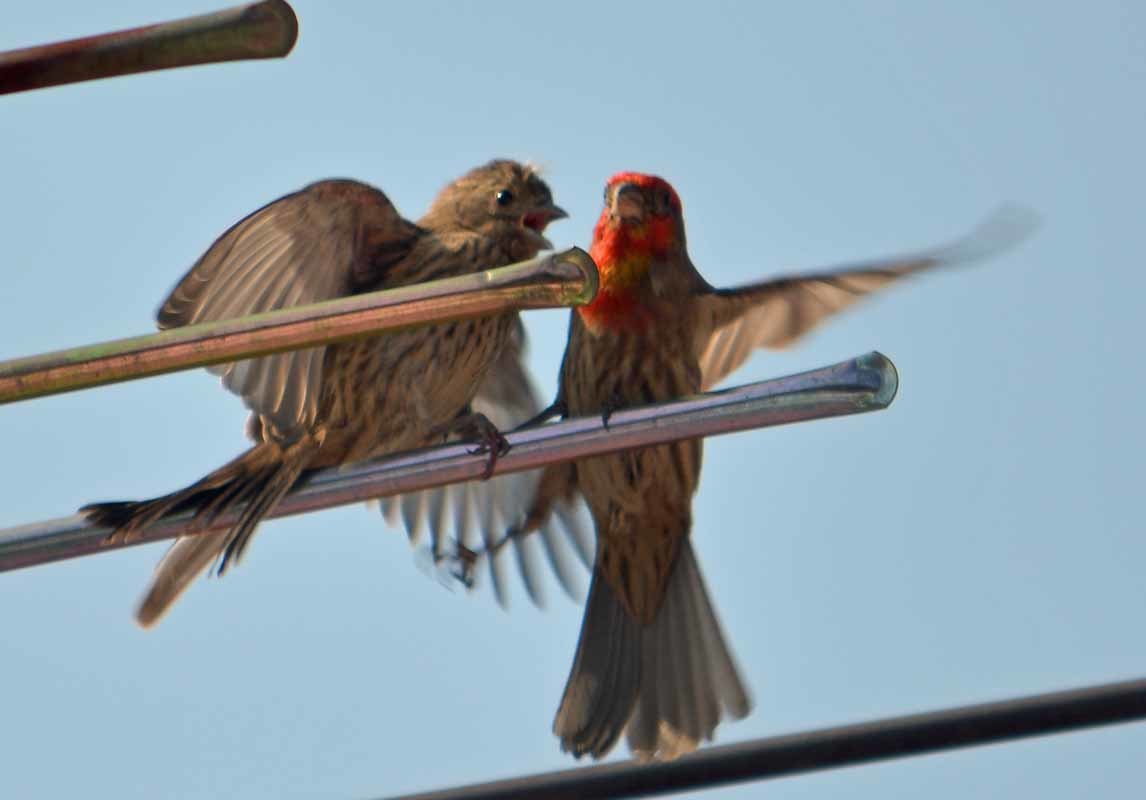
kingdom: Animalia
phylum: Chordata
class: Aves
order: Passeriformes
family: Fringillidae
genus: Haemorhous
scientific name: Haemorhous mexicanus
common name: House finch
